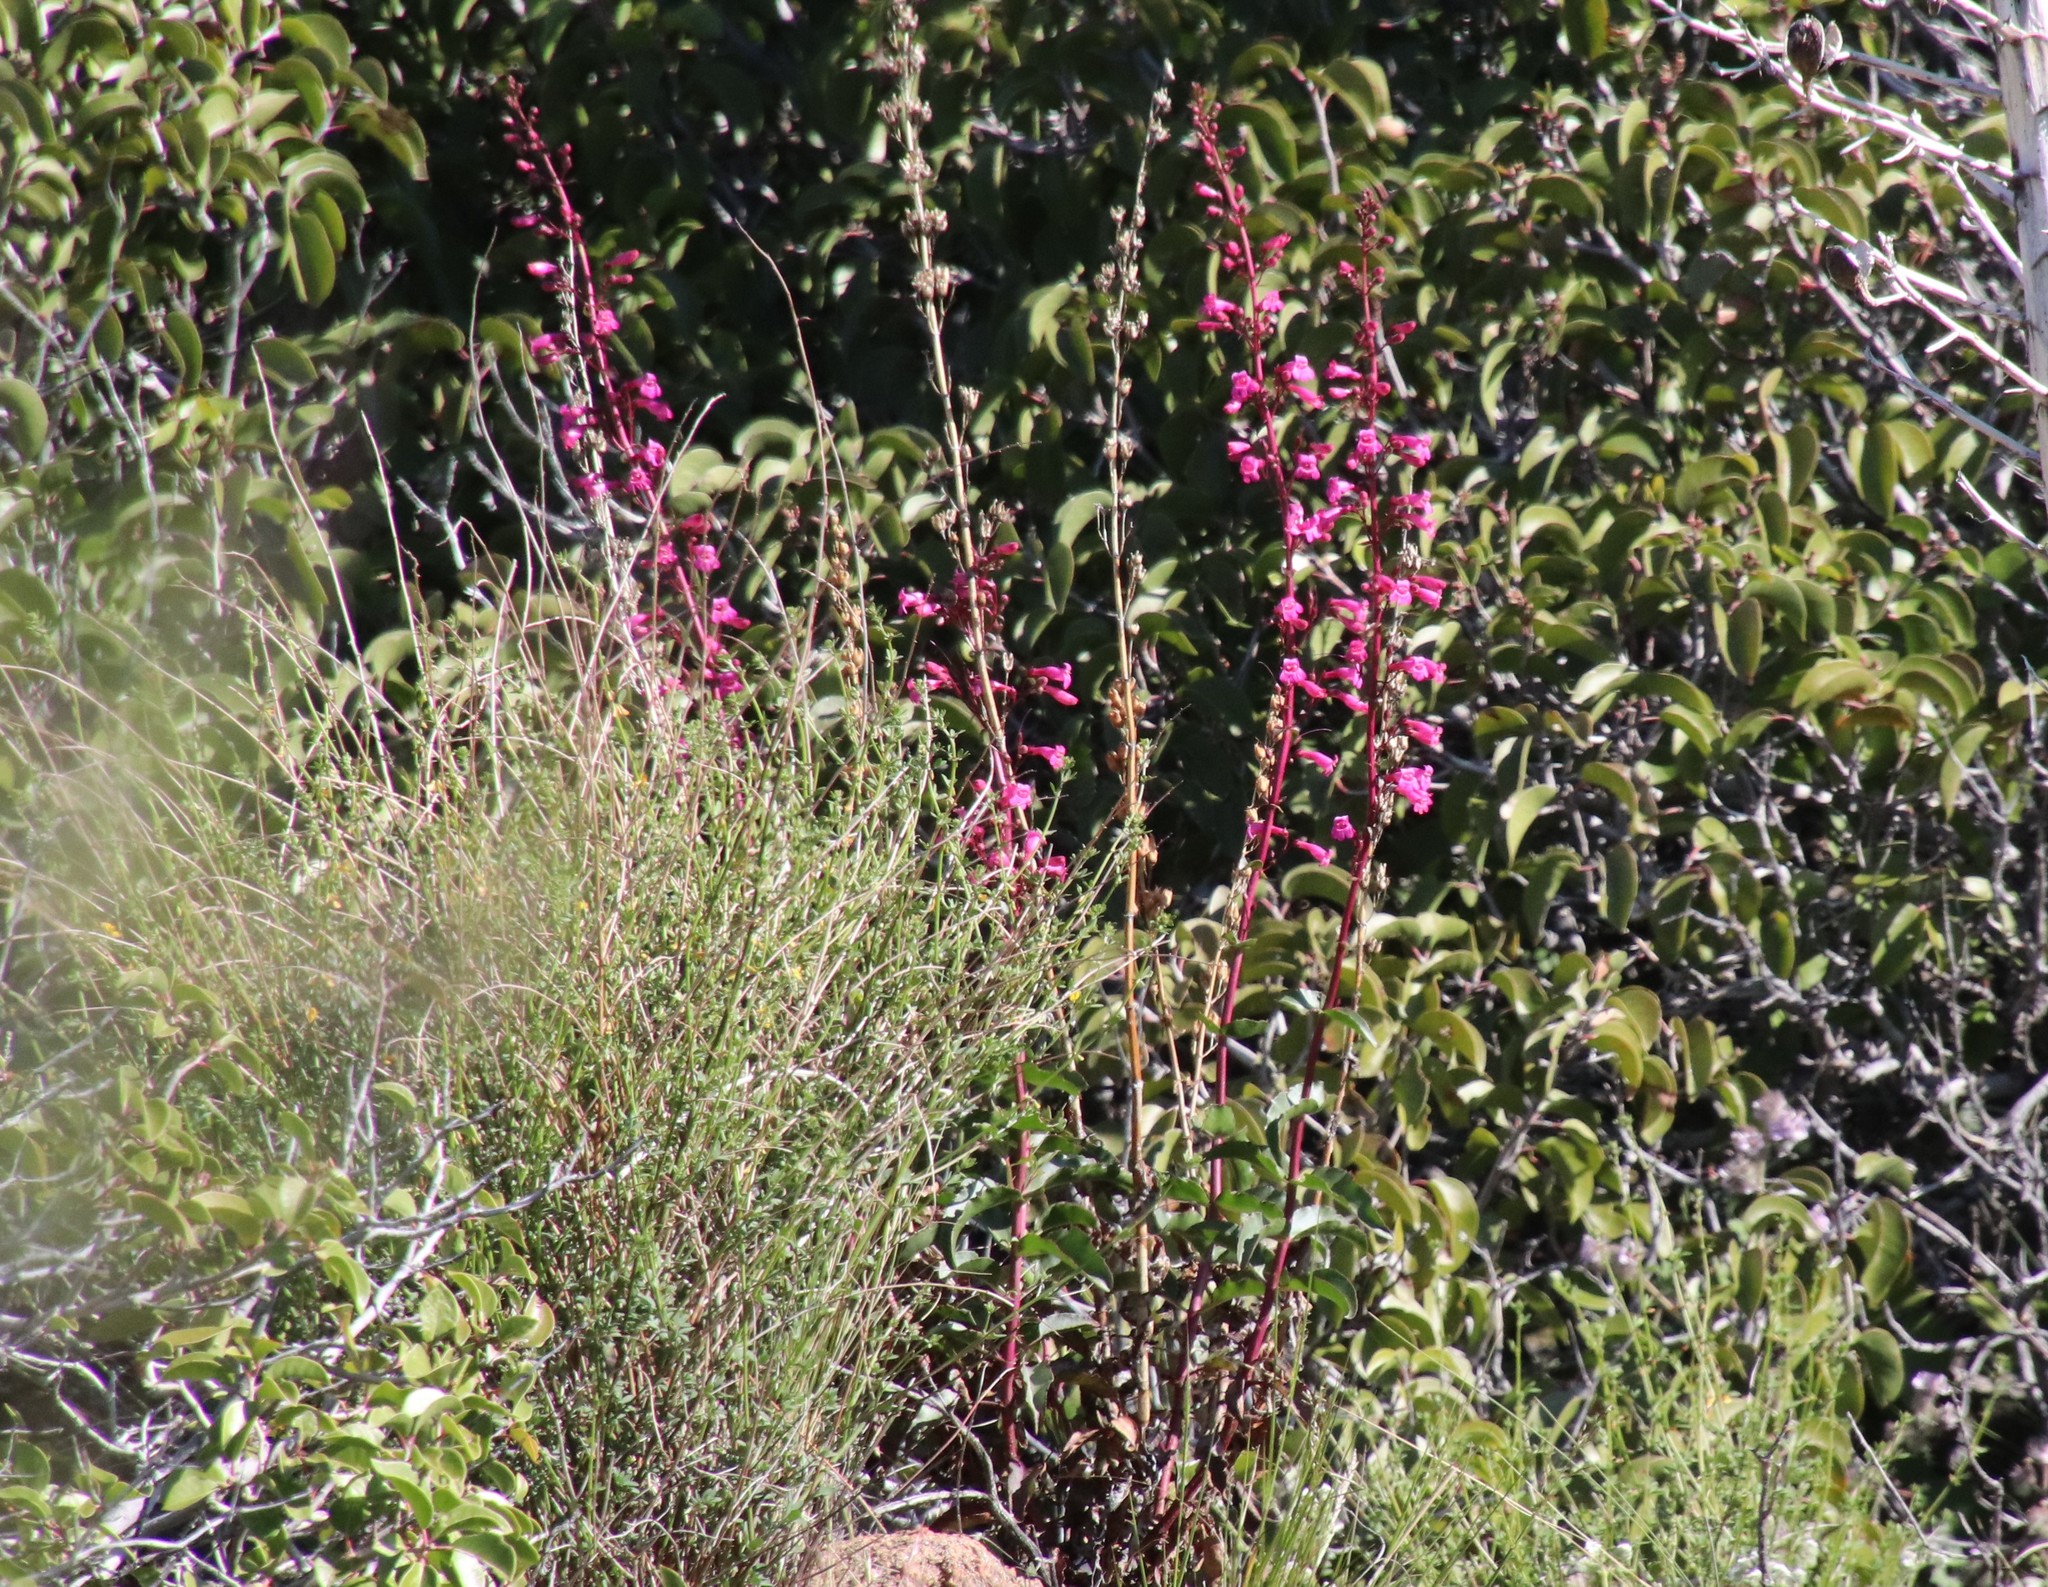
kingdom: Plantae
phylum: Tracheophyta
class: Magnoliopsida
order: Lamiales
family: Plantaginaceae
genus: Penstemon
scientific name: Penstemon clevelandii
